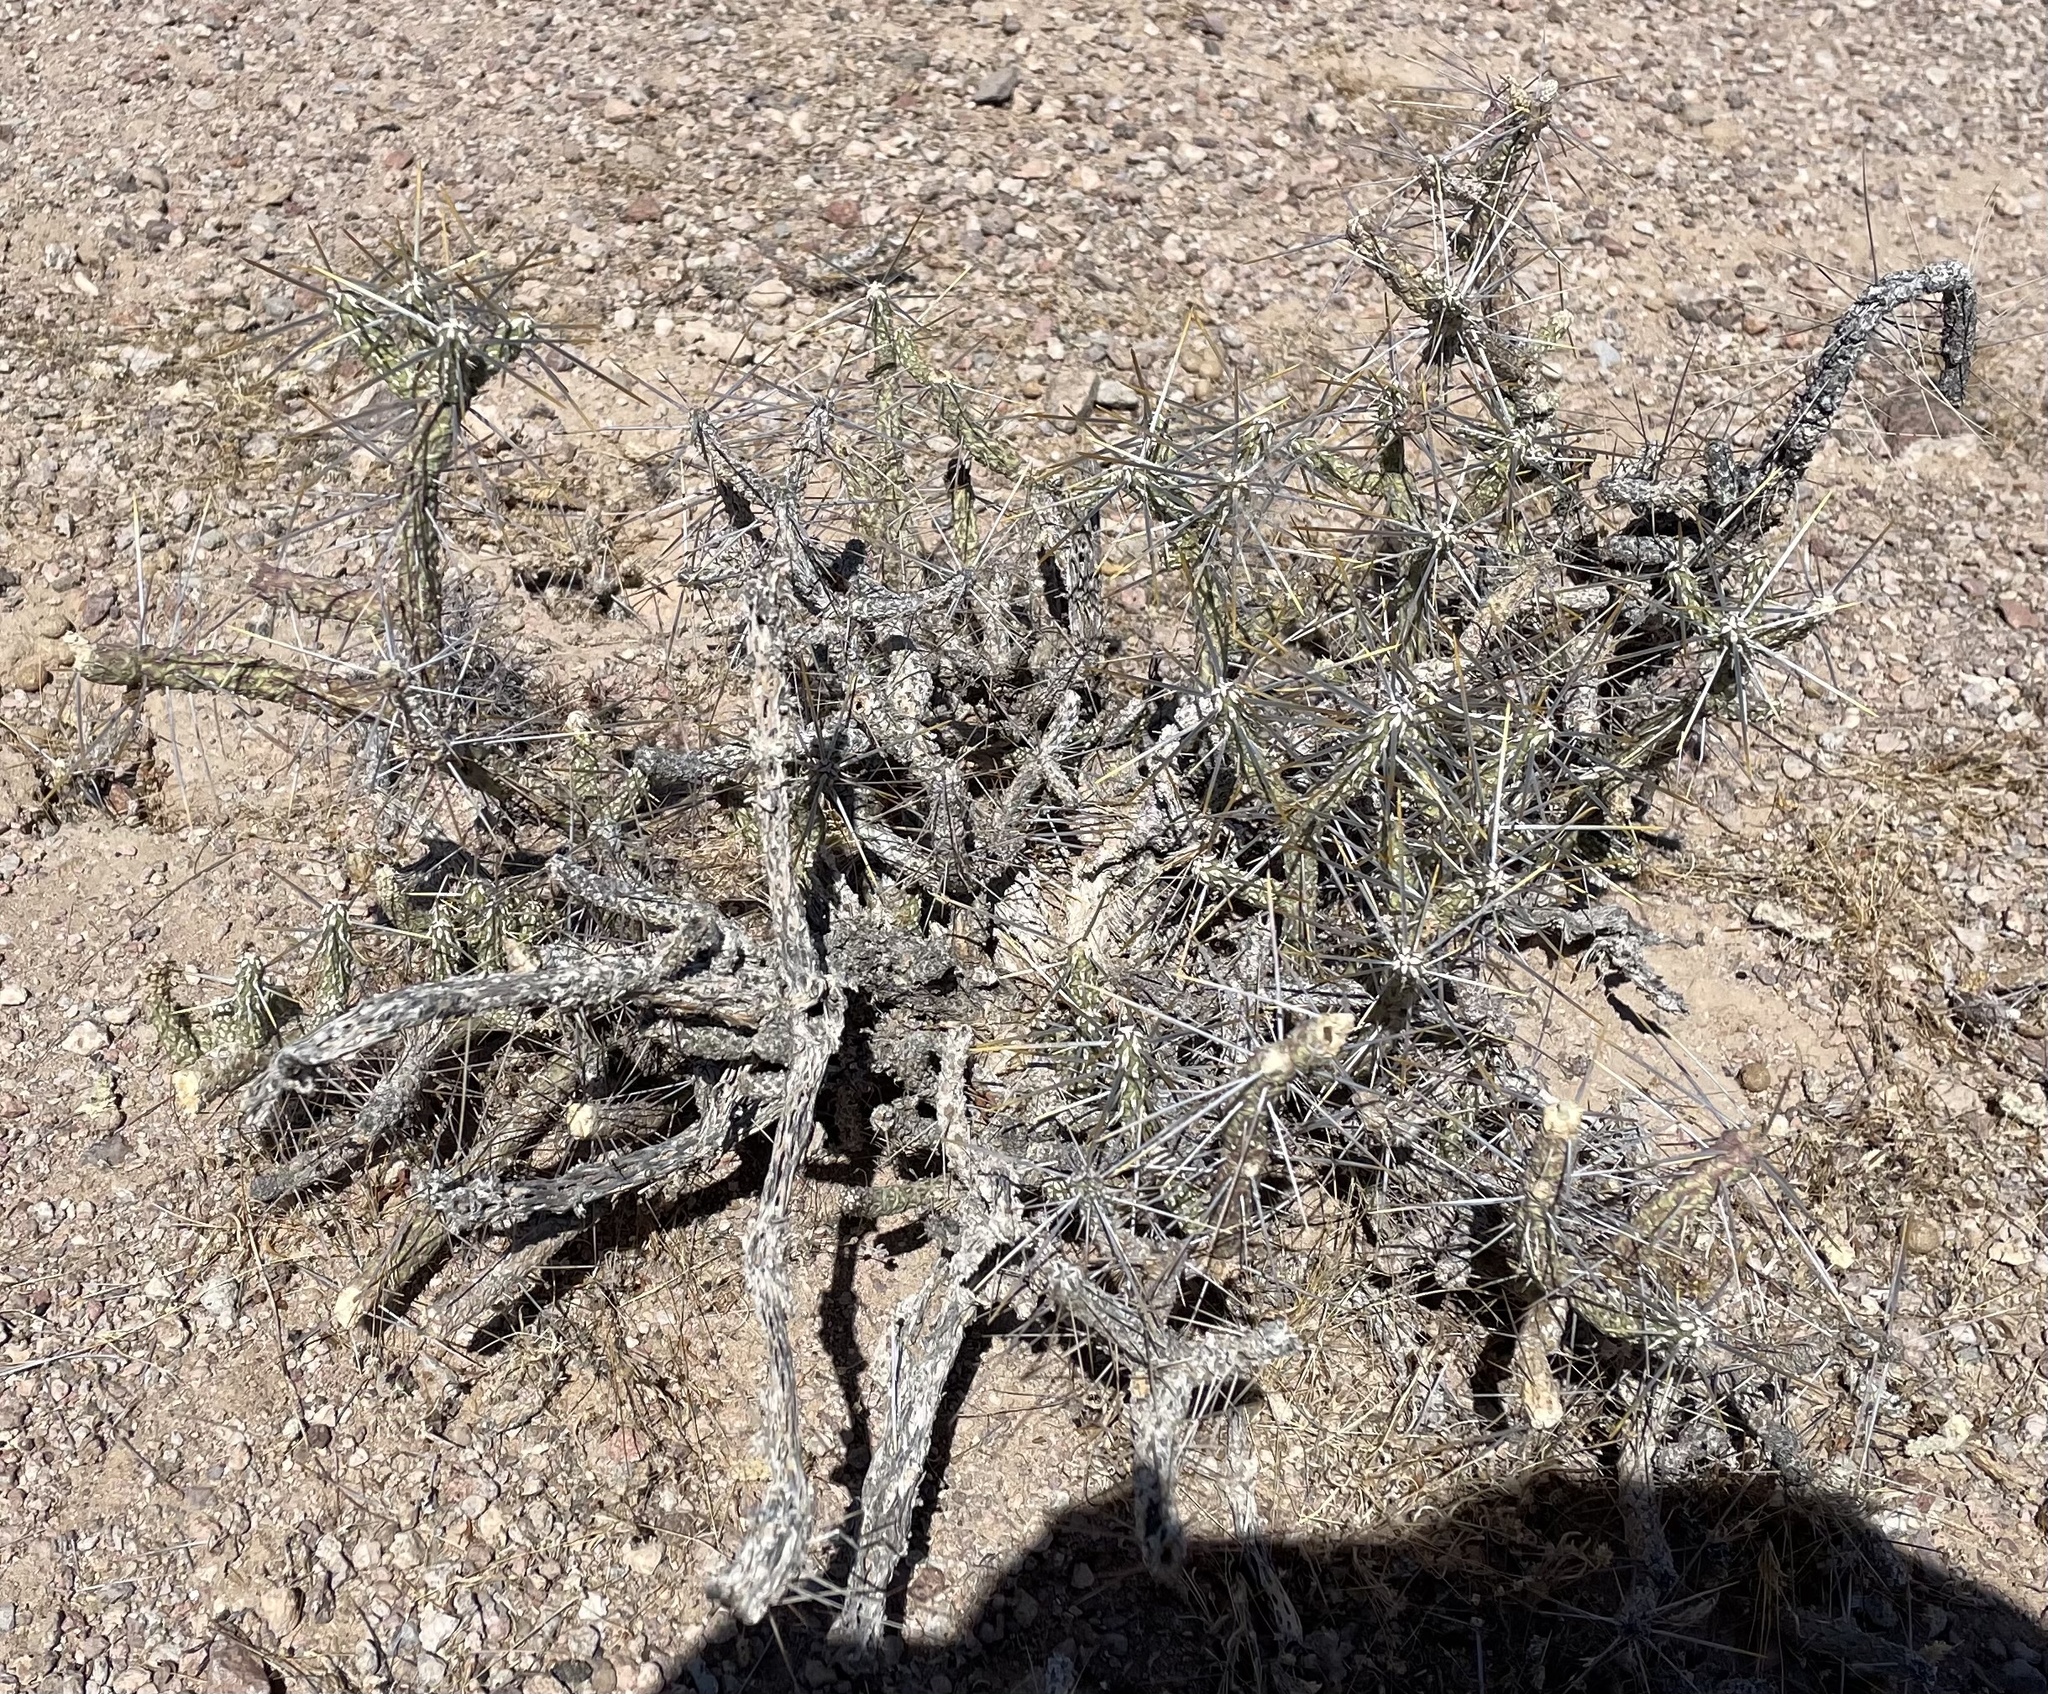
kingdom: Plantae
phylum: Tracheophyta
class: Magnoliopsida
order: Caryophyllales
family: Cactaceae
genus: Cylindropuntia
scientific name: Cylindropuntia ramosissima
